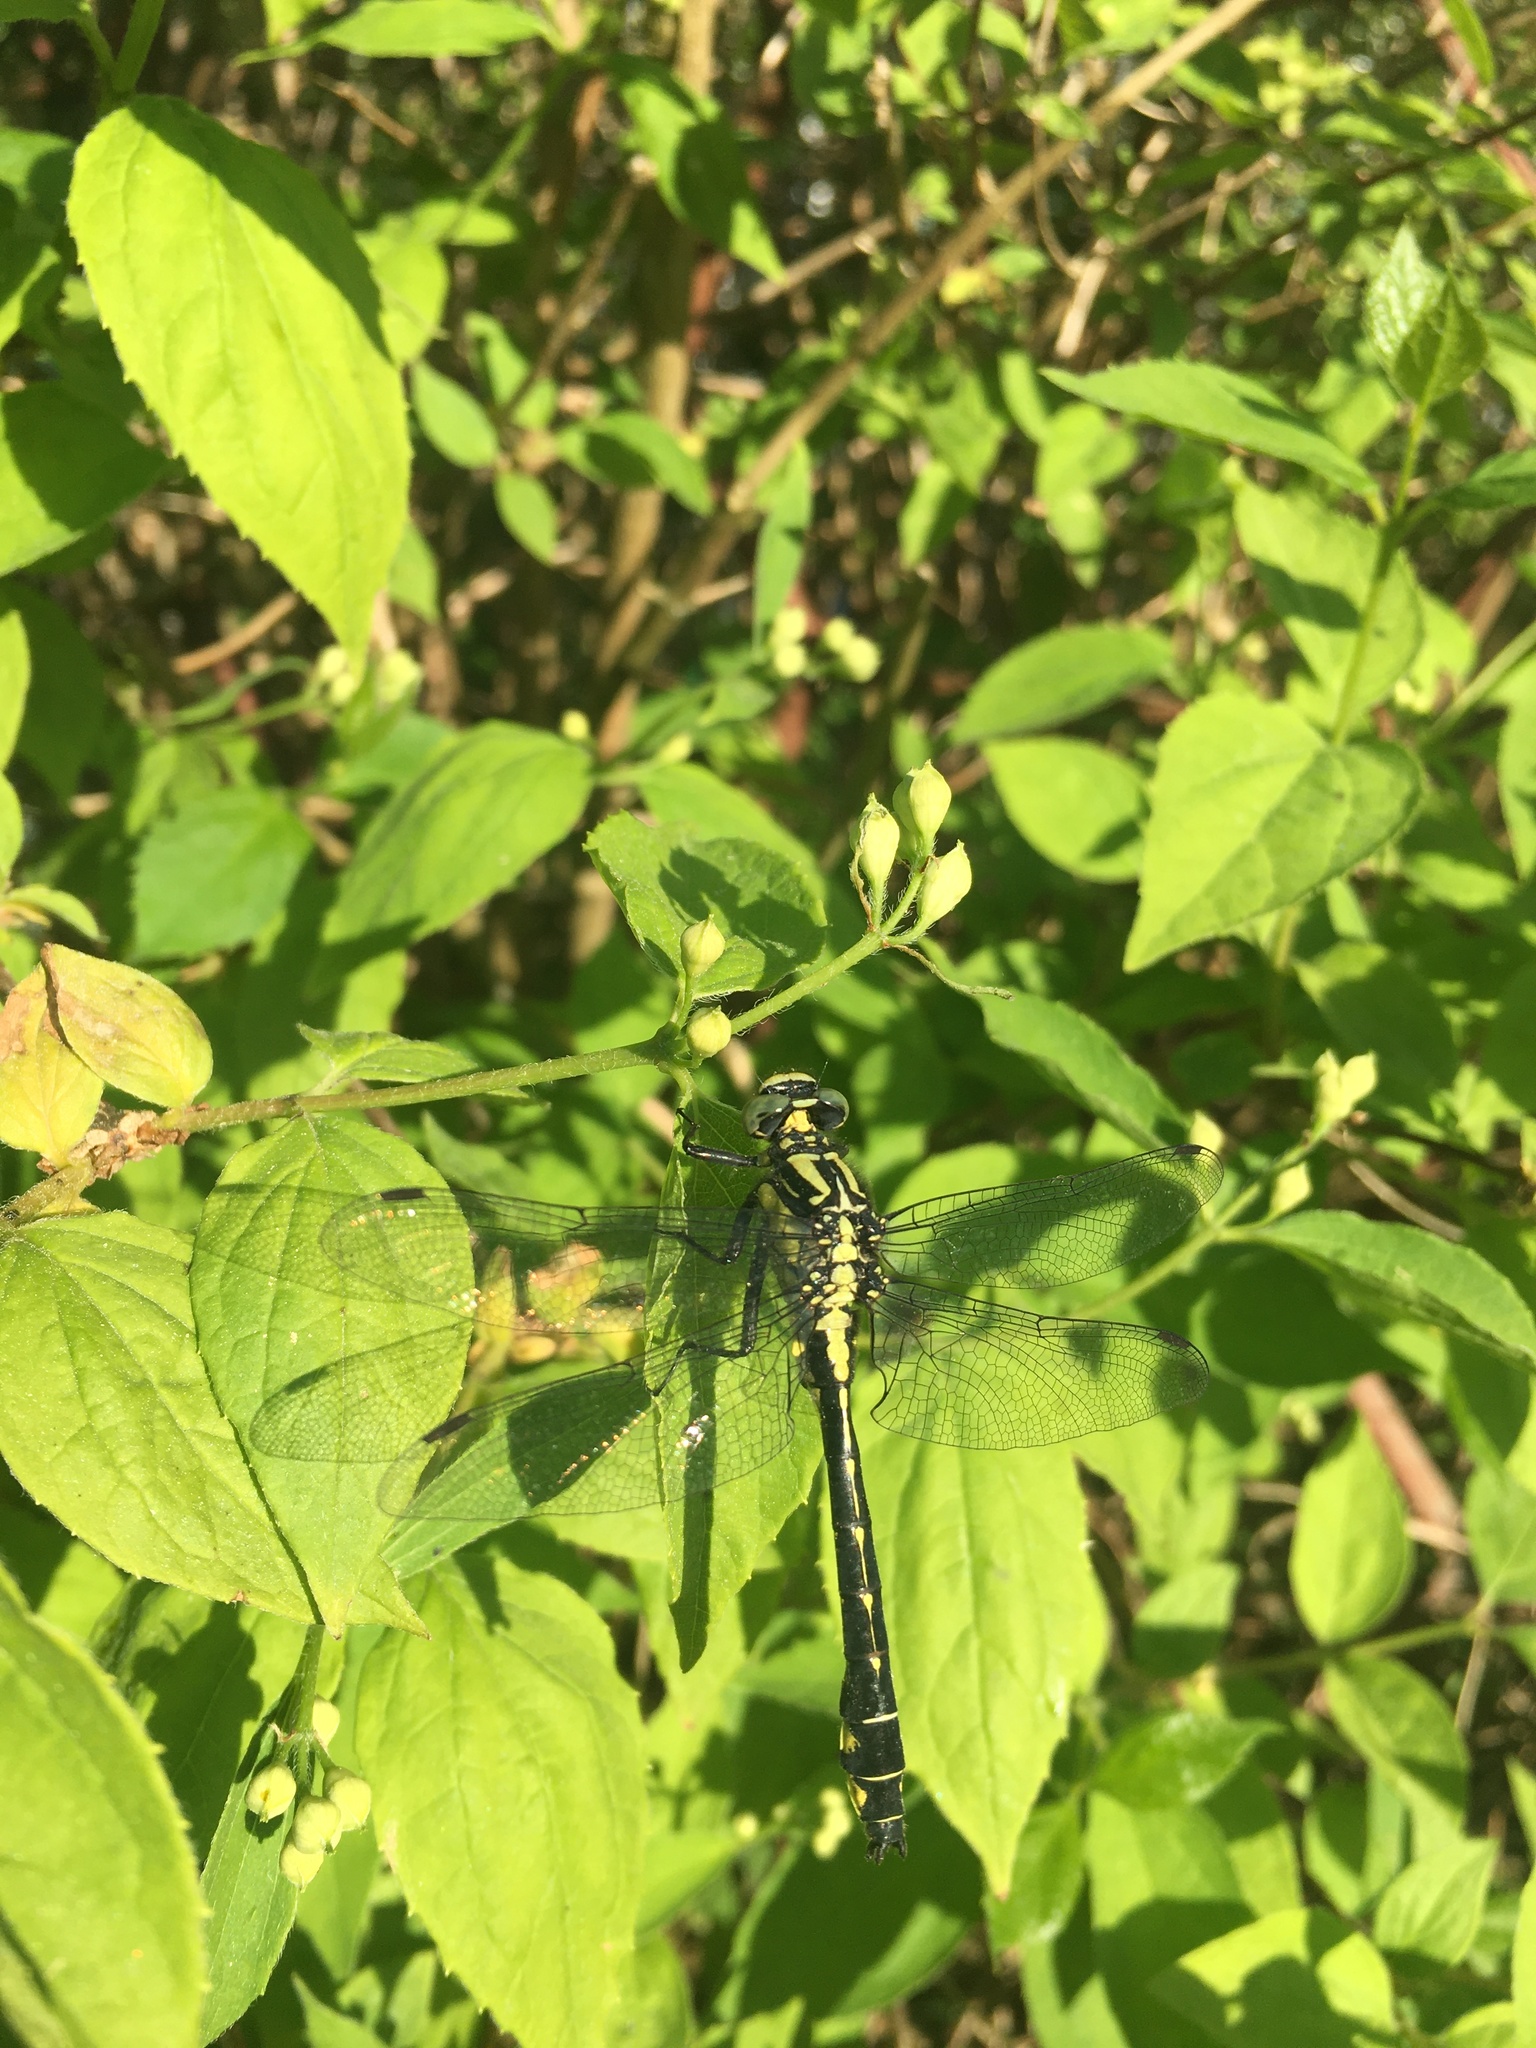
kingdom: Animalia
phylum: Arthropoda
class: Insecta
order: Odonata
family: Gomphidae
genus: Gomphus
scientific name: Gomphus vulgatissimus
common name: Club-tailed dragonfly
